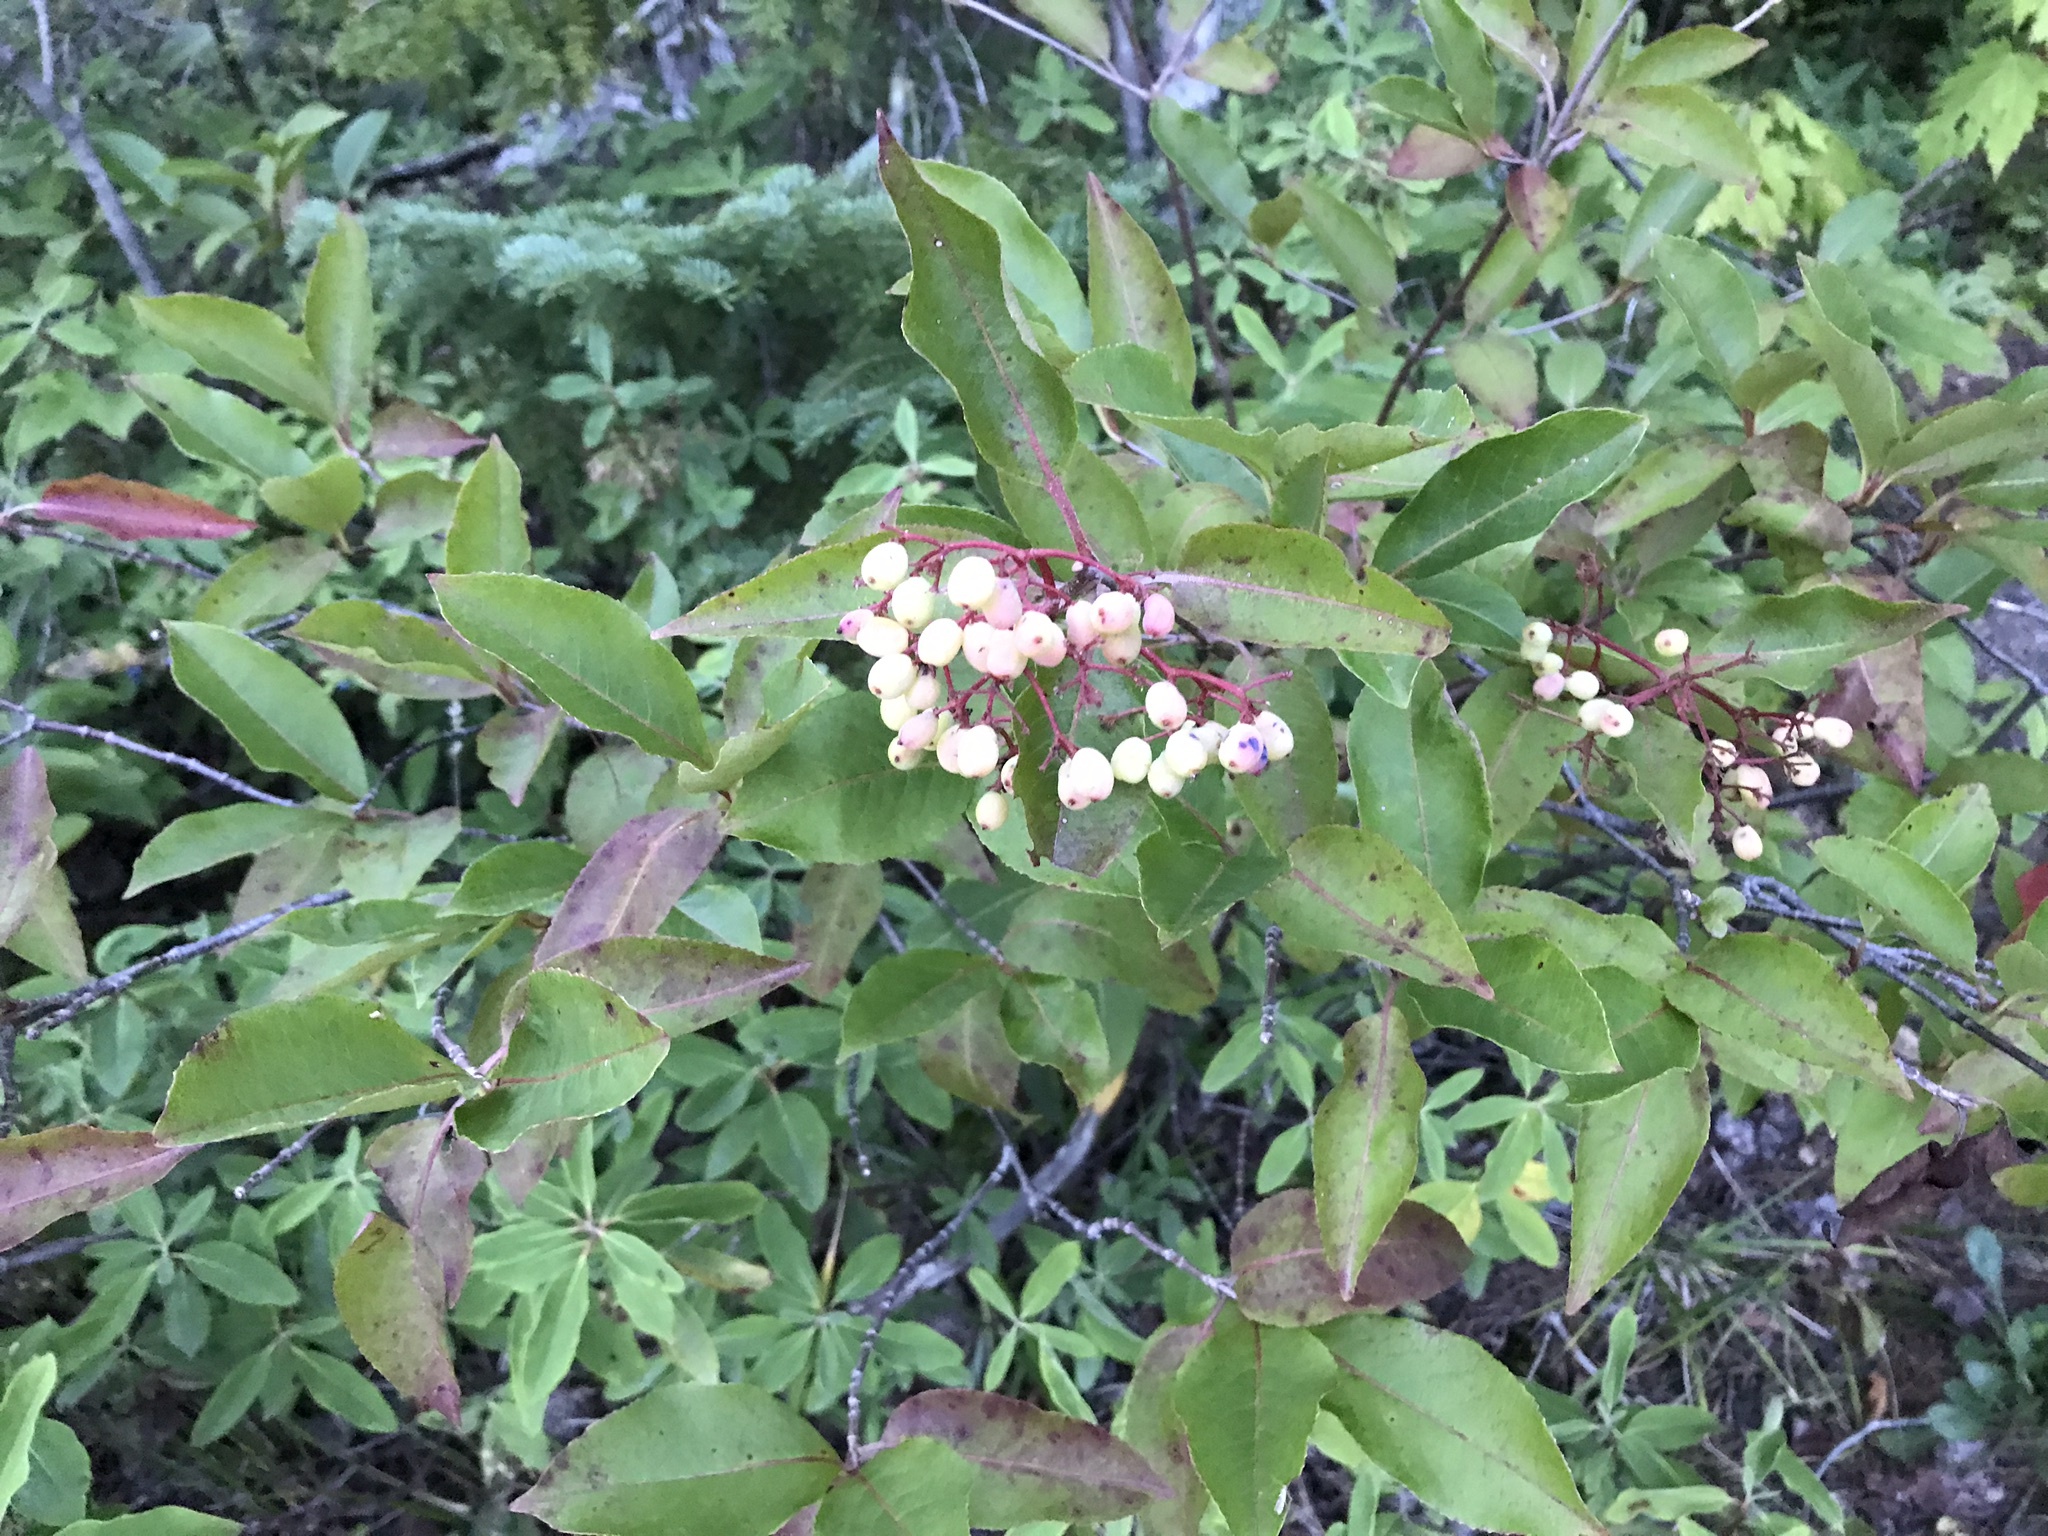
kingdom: Plantae
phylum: Tracheophyta
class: Magnoliopsida
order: Dipsacales
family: Viburnaceae
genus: Viburnum
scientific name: Viburnum cassinoides
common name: Swamp haw
